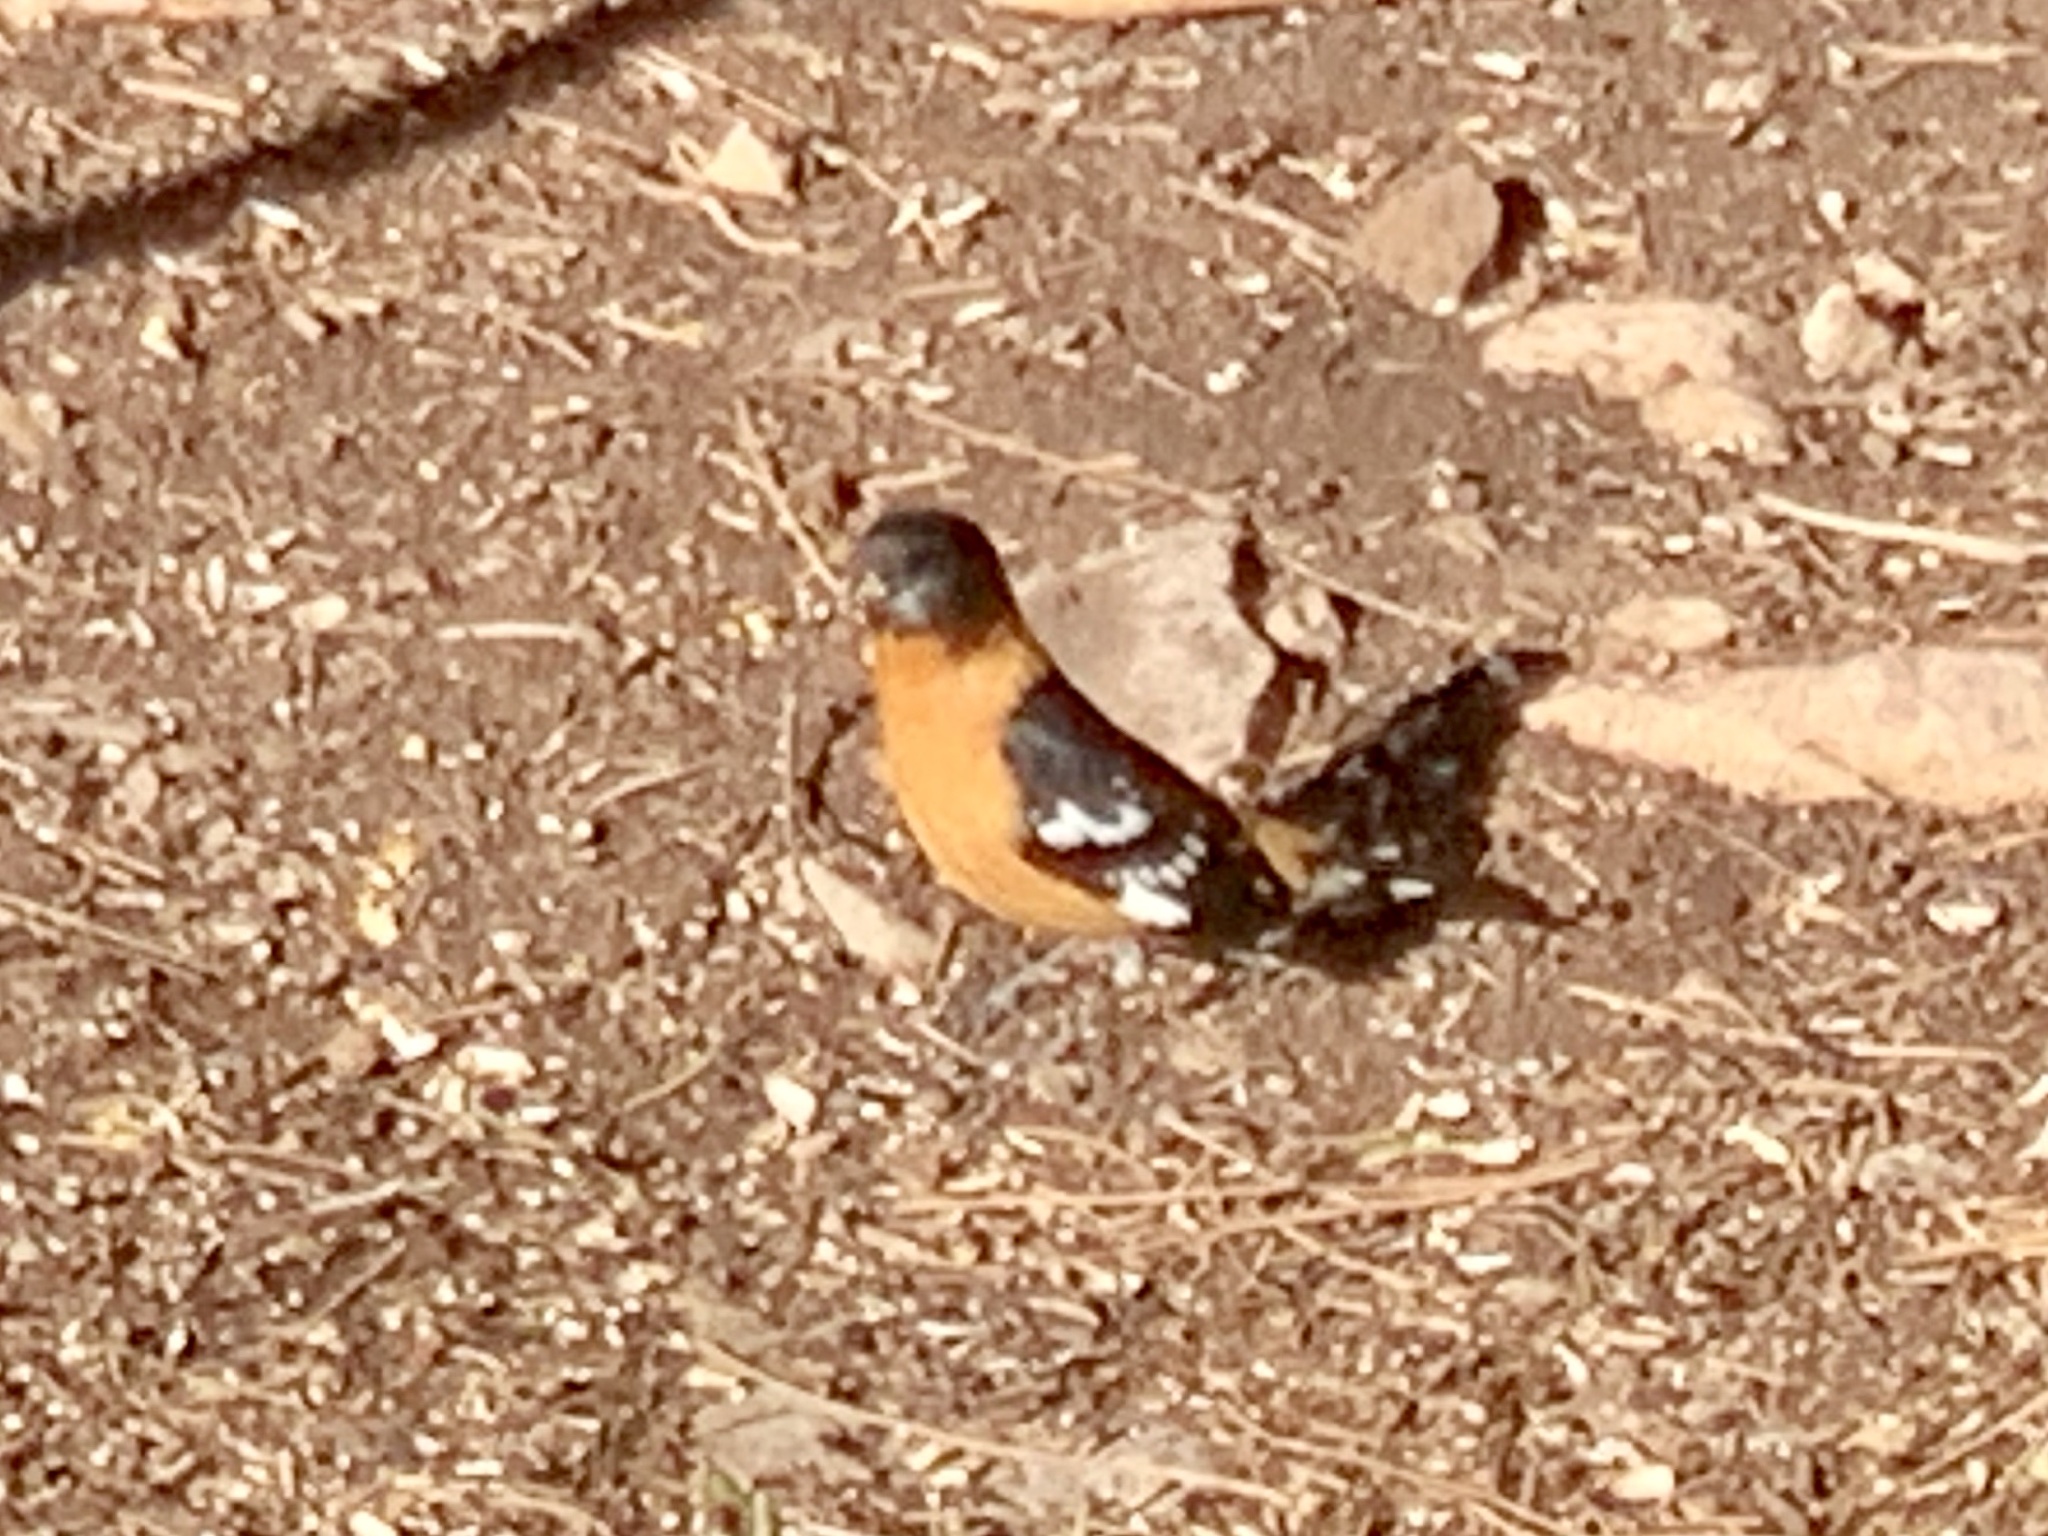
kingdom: Animalia
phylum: Chordata
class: Aves
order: Passeriformes
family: Cardinalidae
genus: Pheucticus
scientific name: Pheucticus melanocephalus
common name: Black-headed grosbeak
